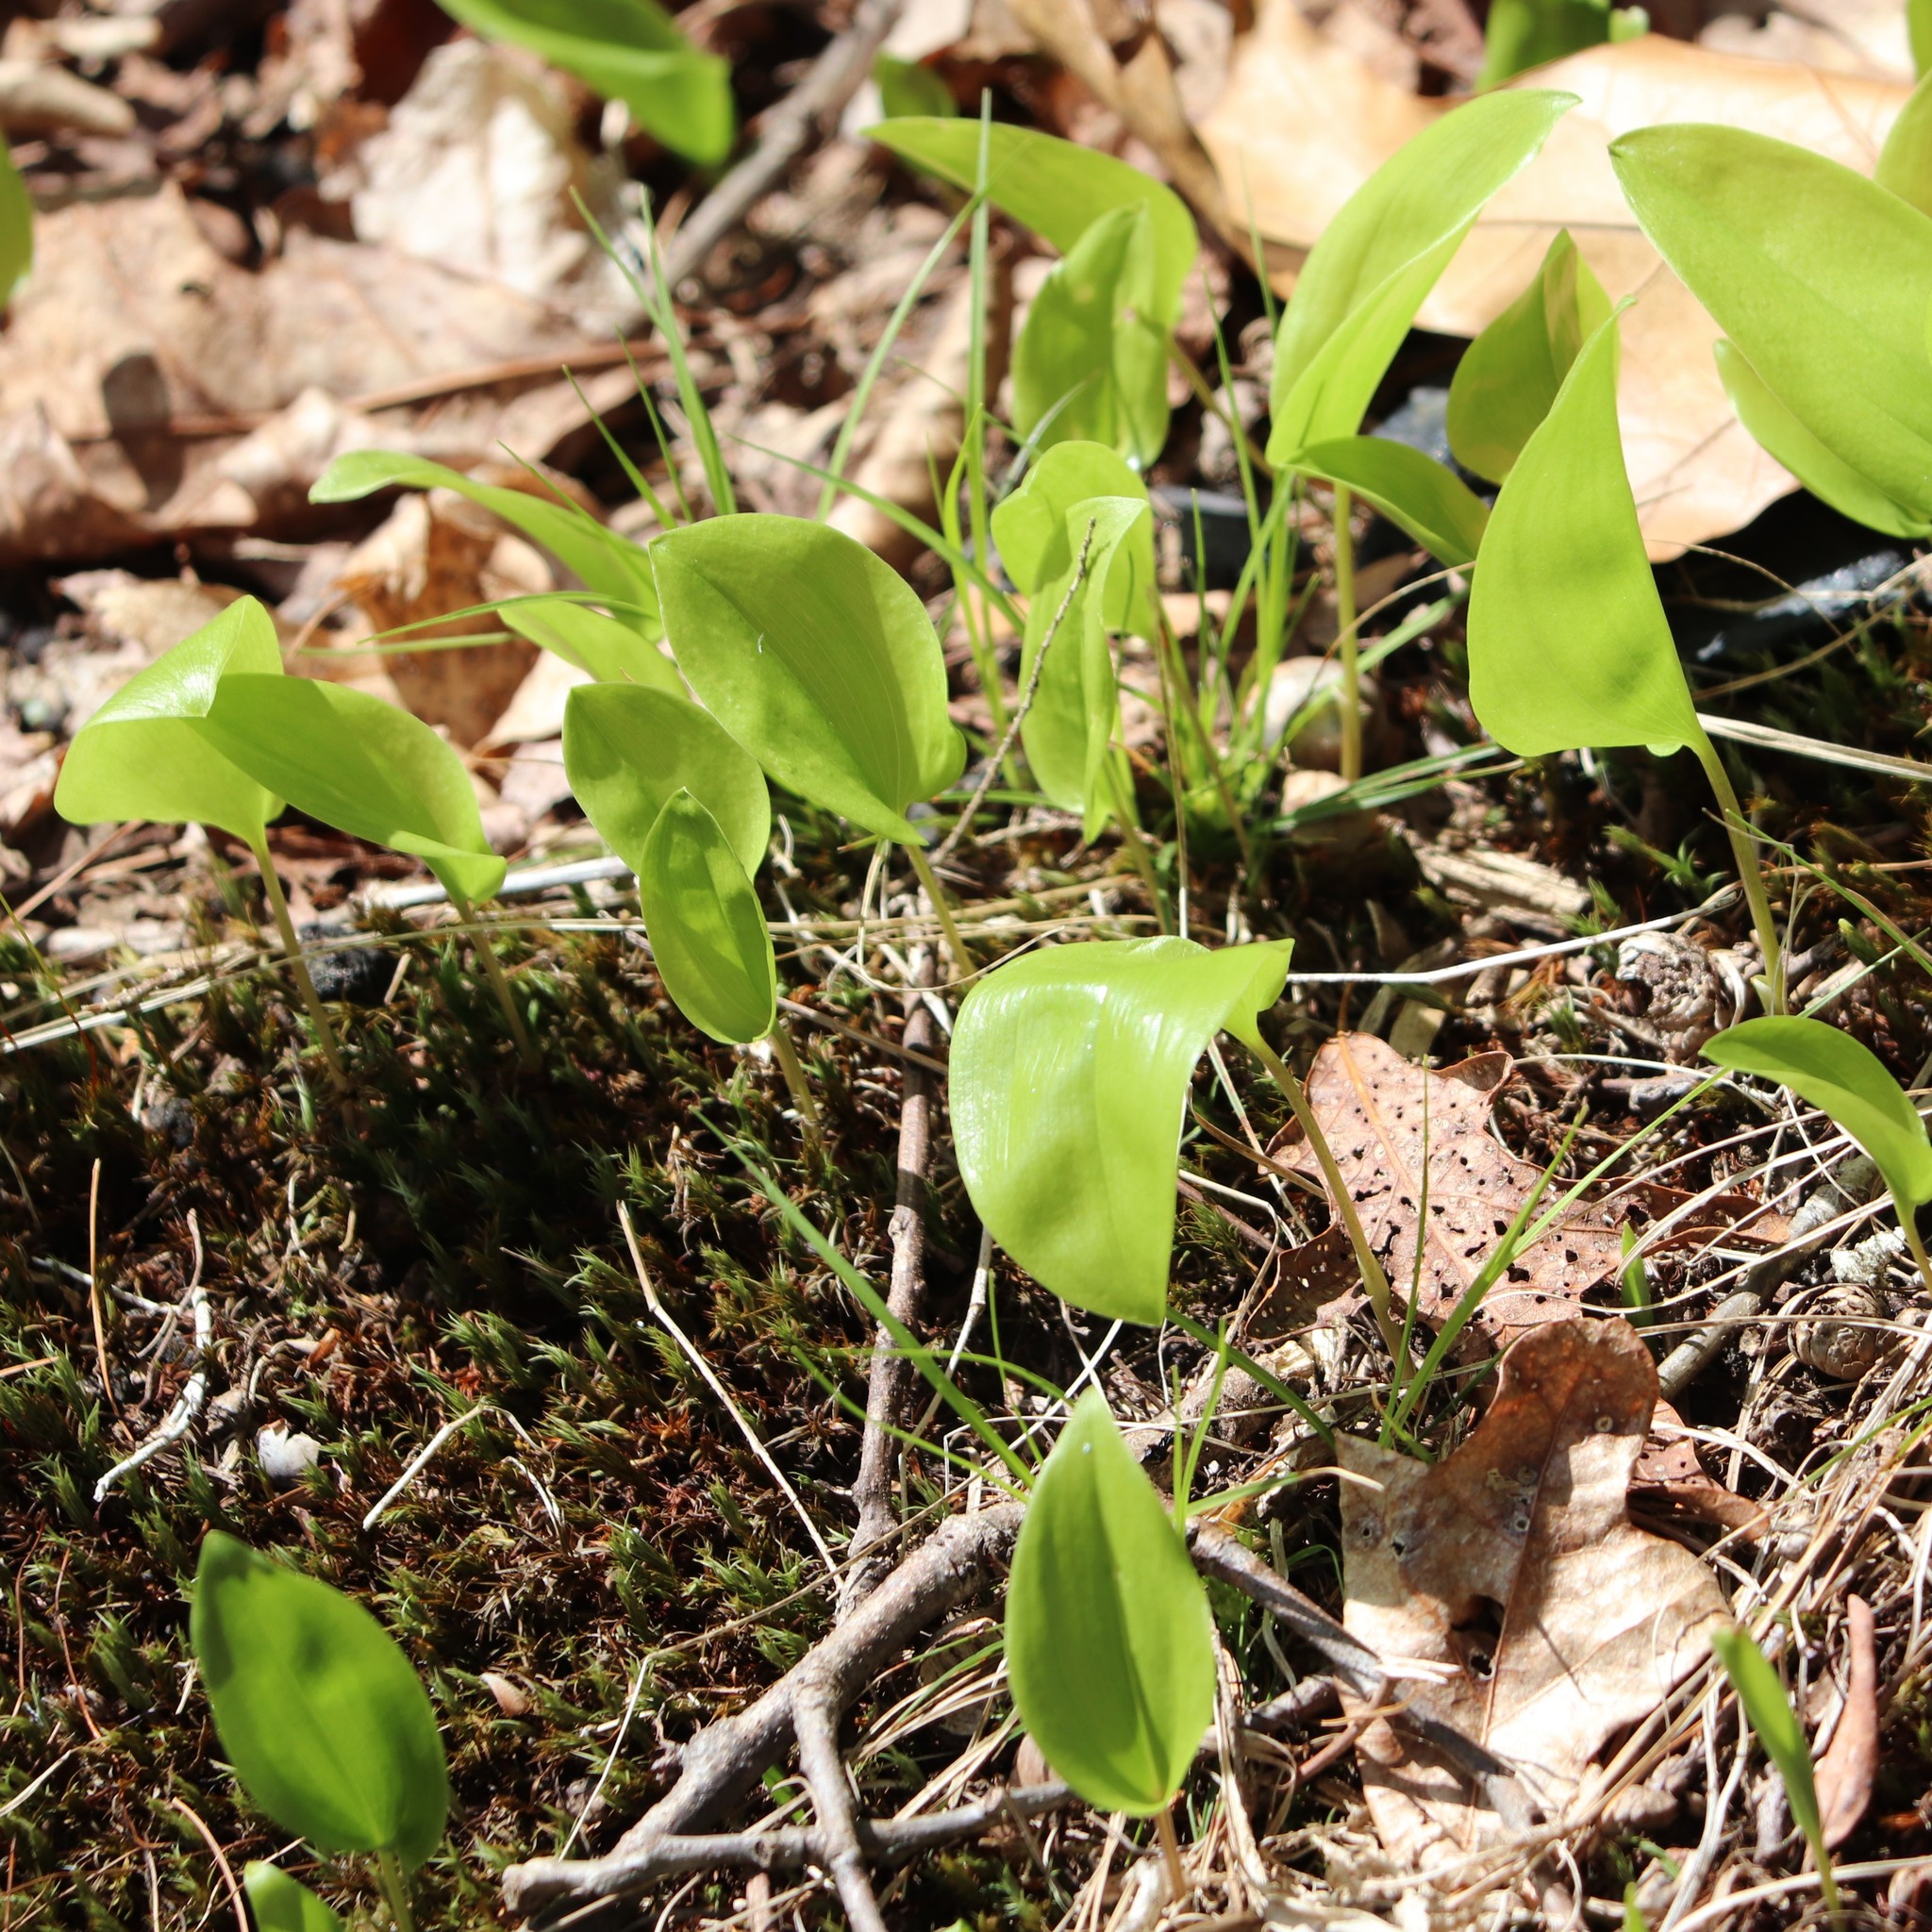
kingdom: Plantae
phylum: Tracheophyta
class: Liliopsida
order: Asparagales
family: Asparagaceae
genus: Maianthemum
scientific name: Maianthemum canadense
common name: False lily-of-the-valley
